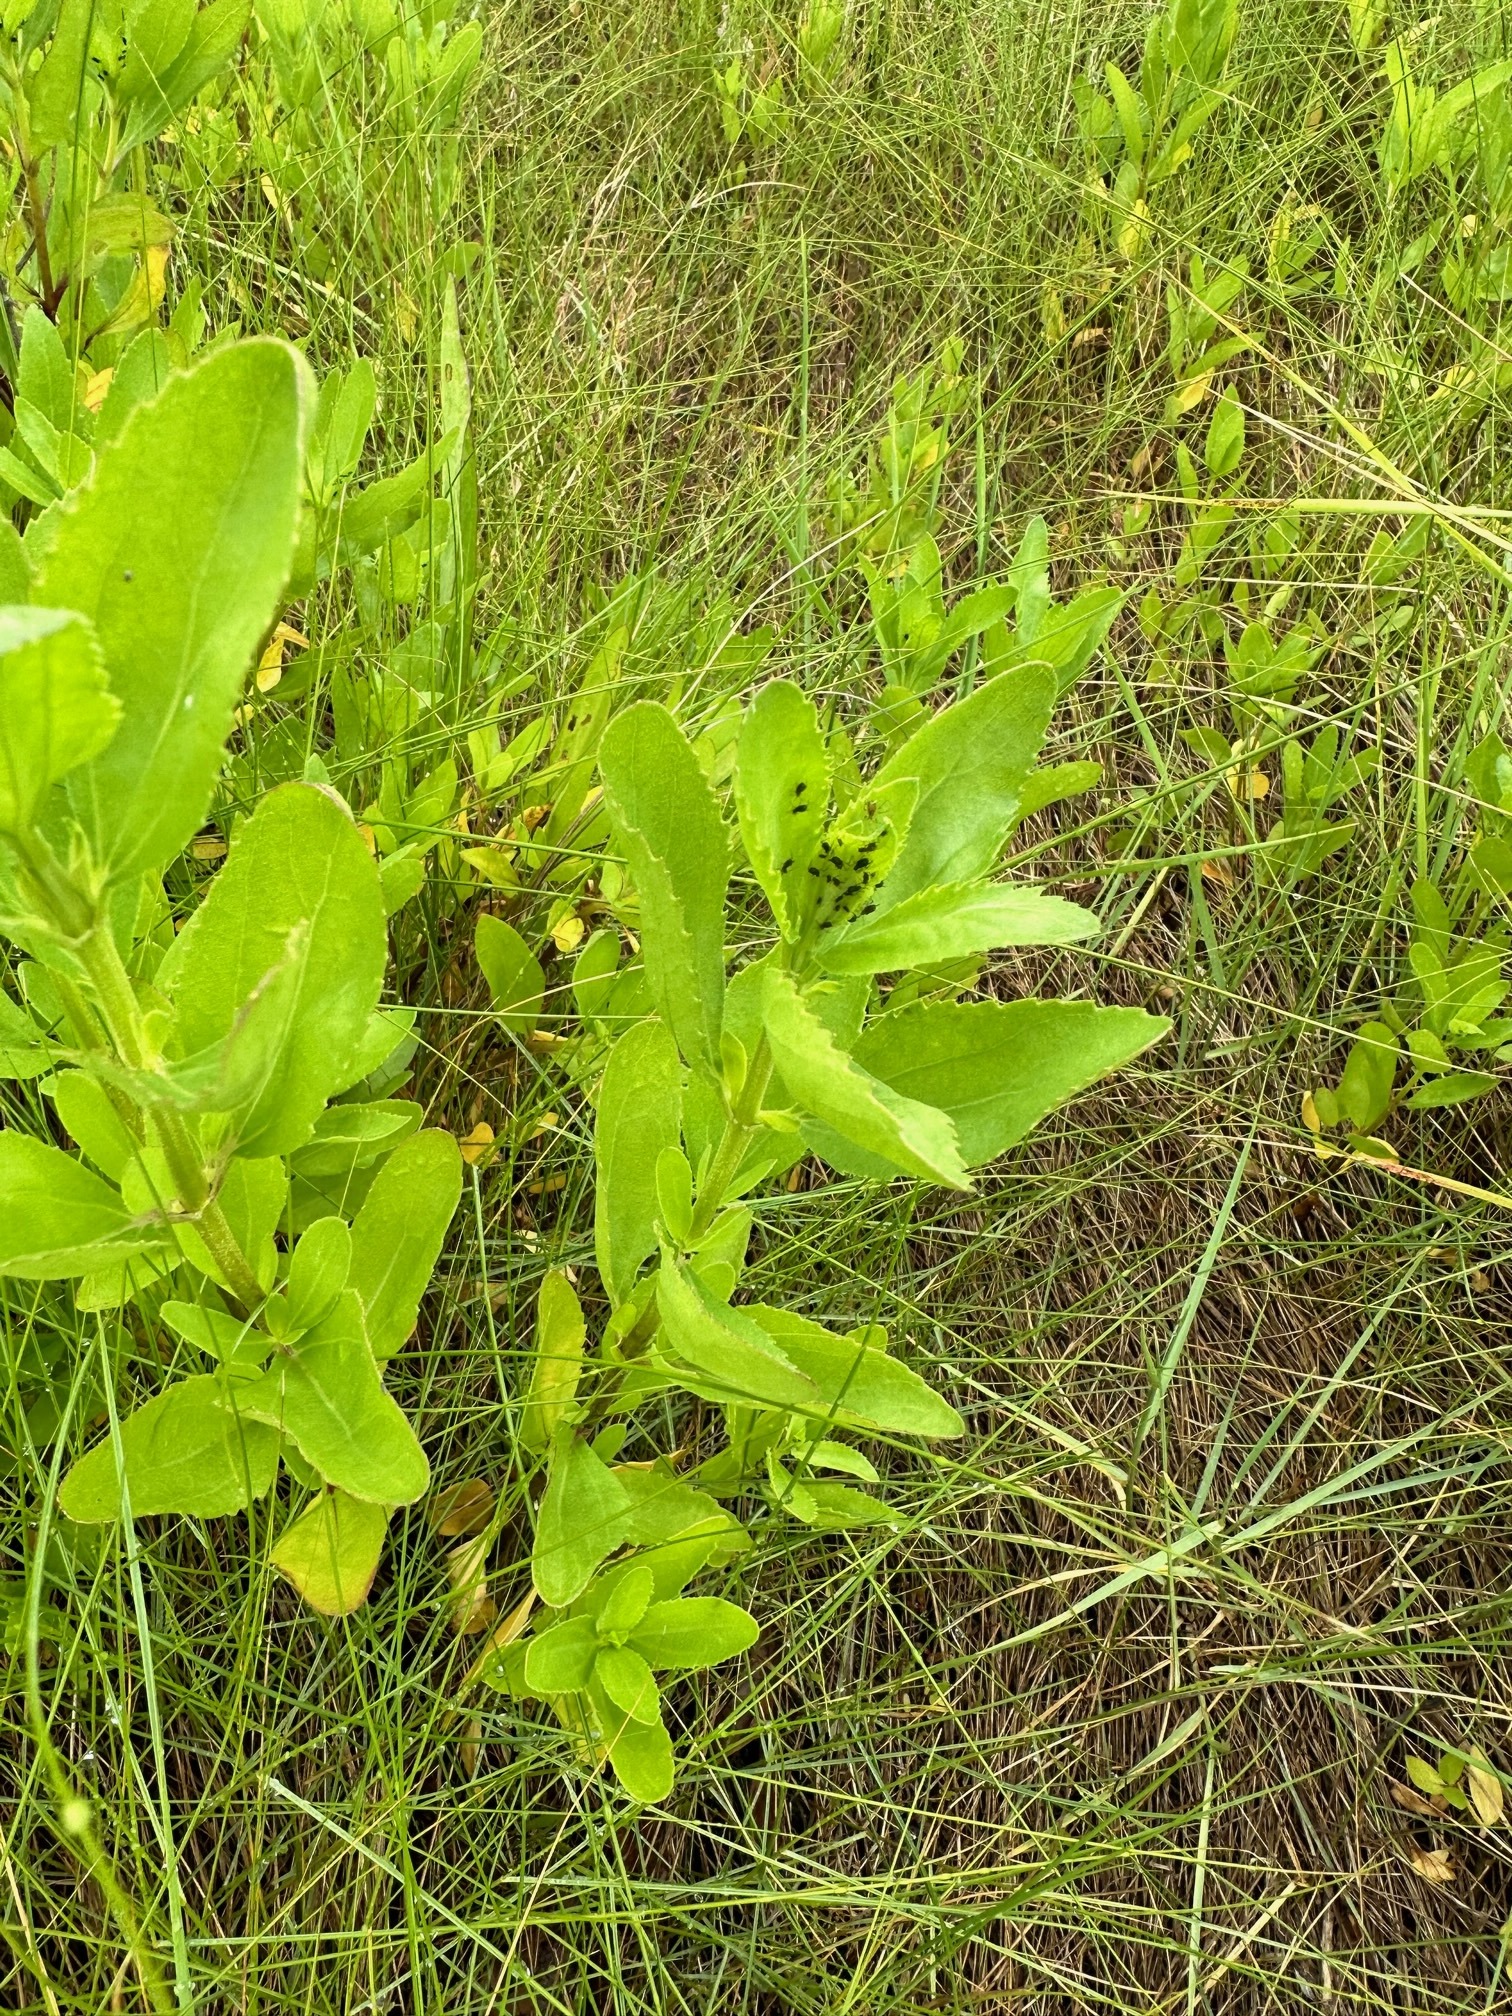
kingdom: Plantae
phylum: Tracheophyta
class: Magnoliopsida
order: Asterales
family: Asteraceae
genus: Iva
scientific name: Iva frutescens
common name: Big-leaved marsh-elder
